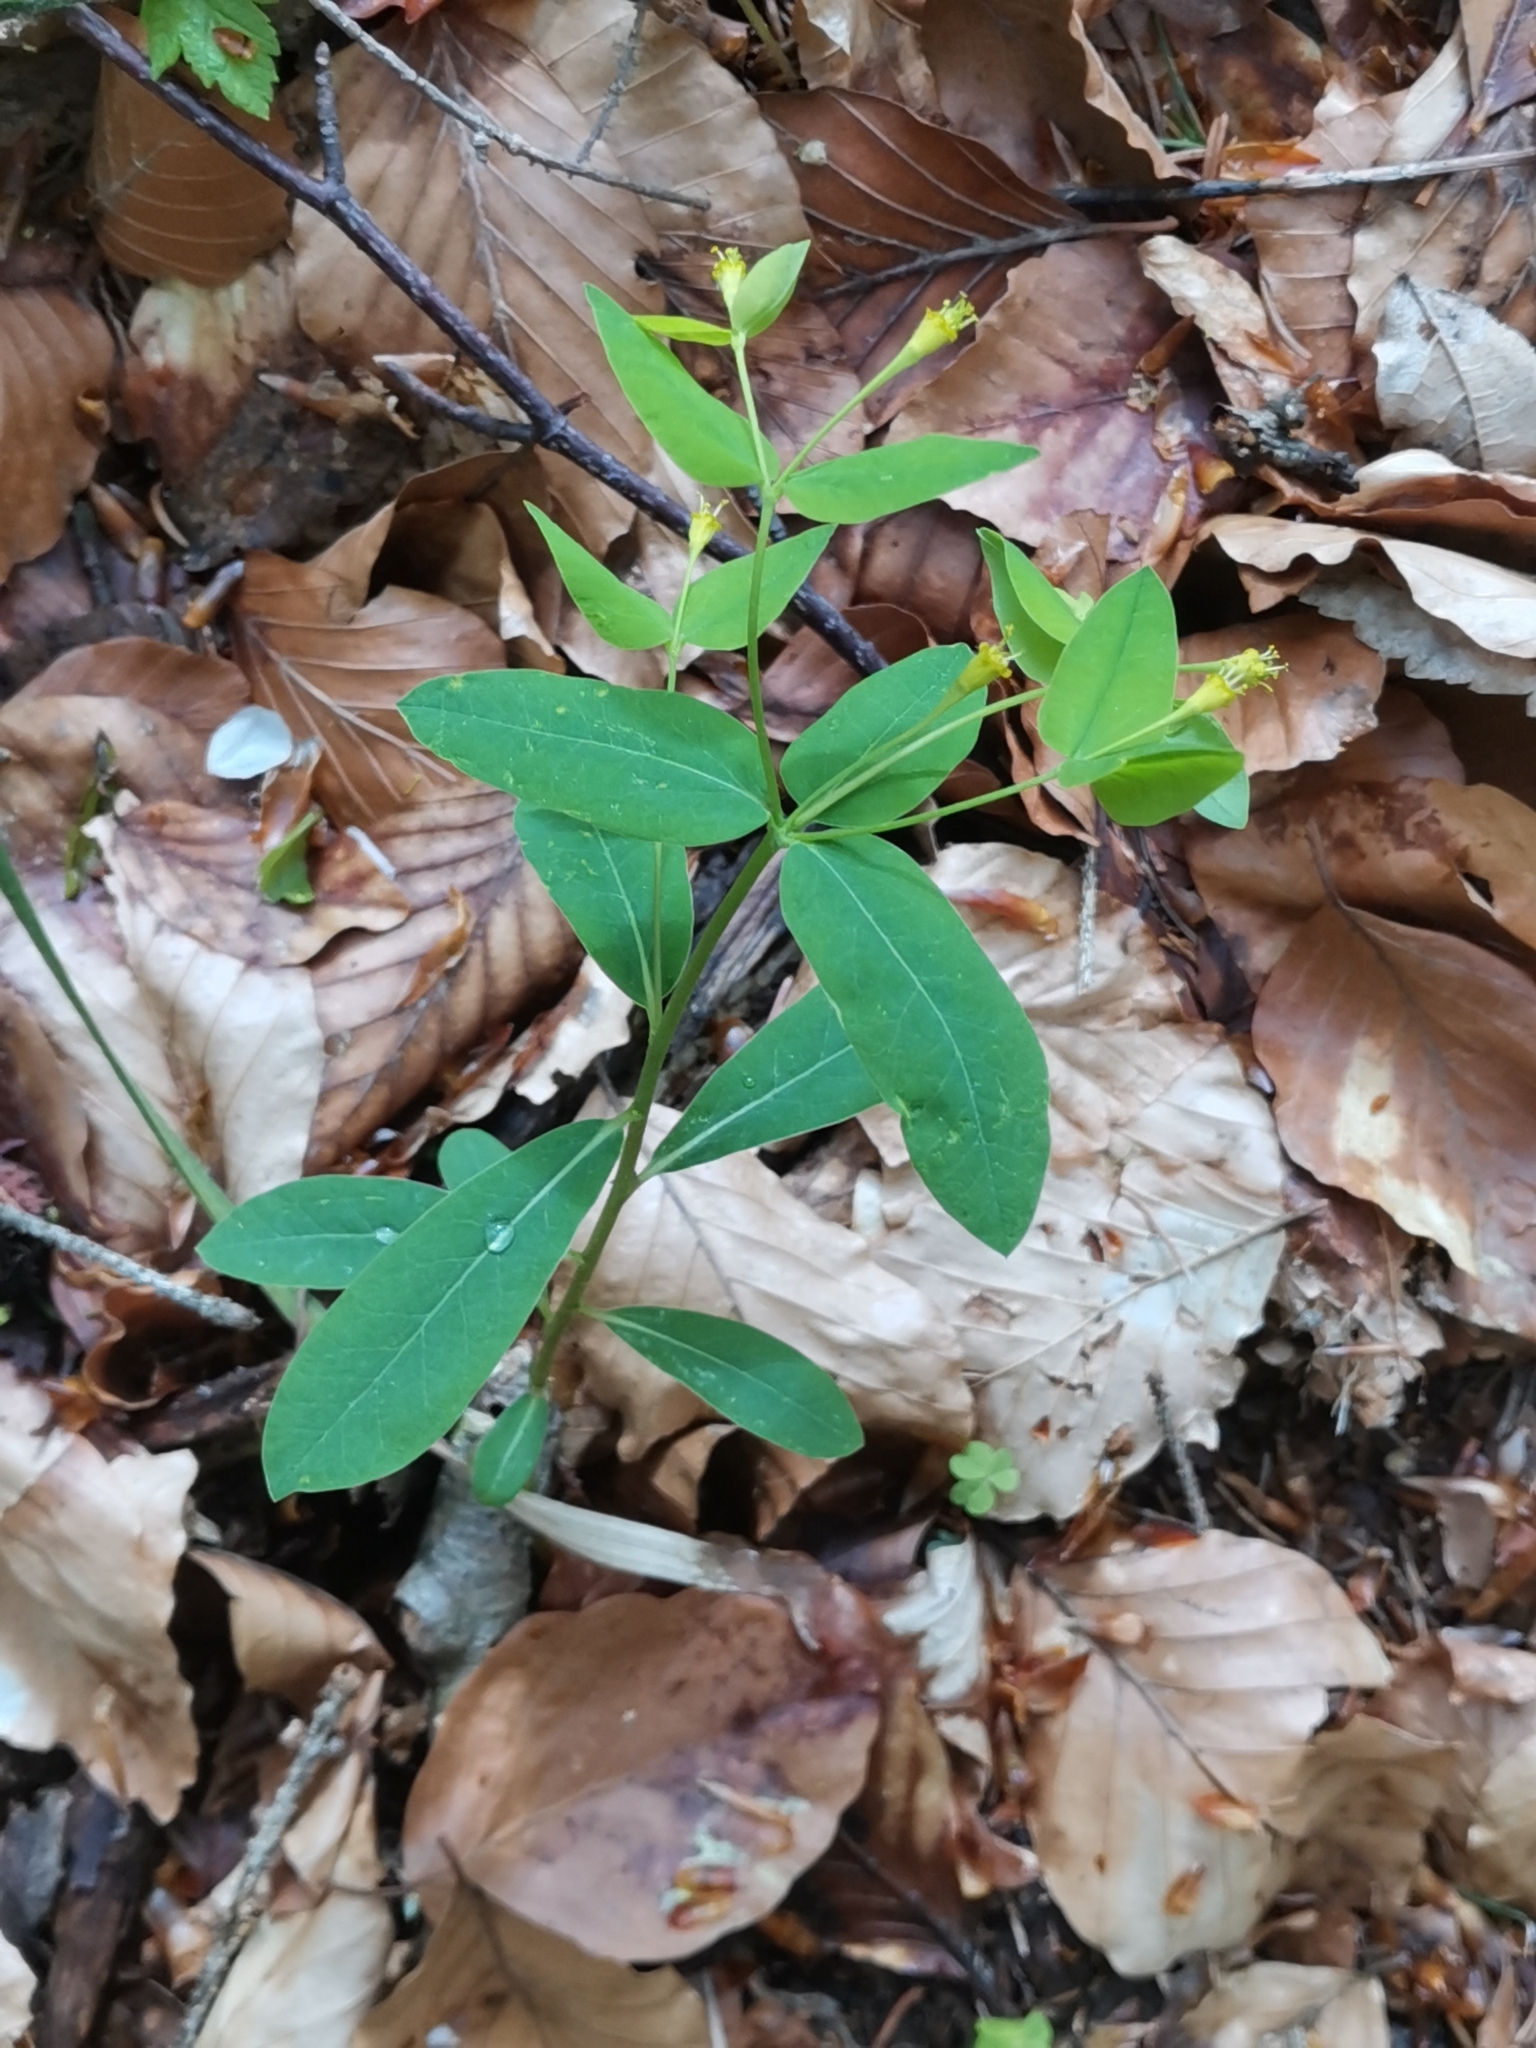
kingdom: Plantae
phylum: Tracheophyta
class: Magnoliopsida
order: Malpighiales
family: Euphorbiaceae
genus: Euphorbia
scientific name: Euphorbia carniolica
